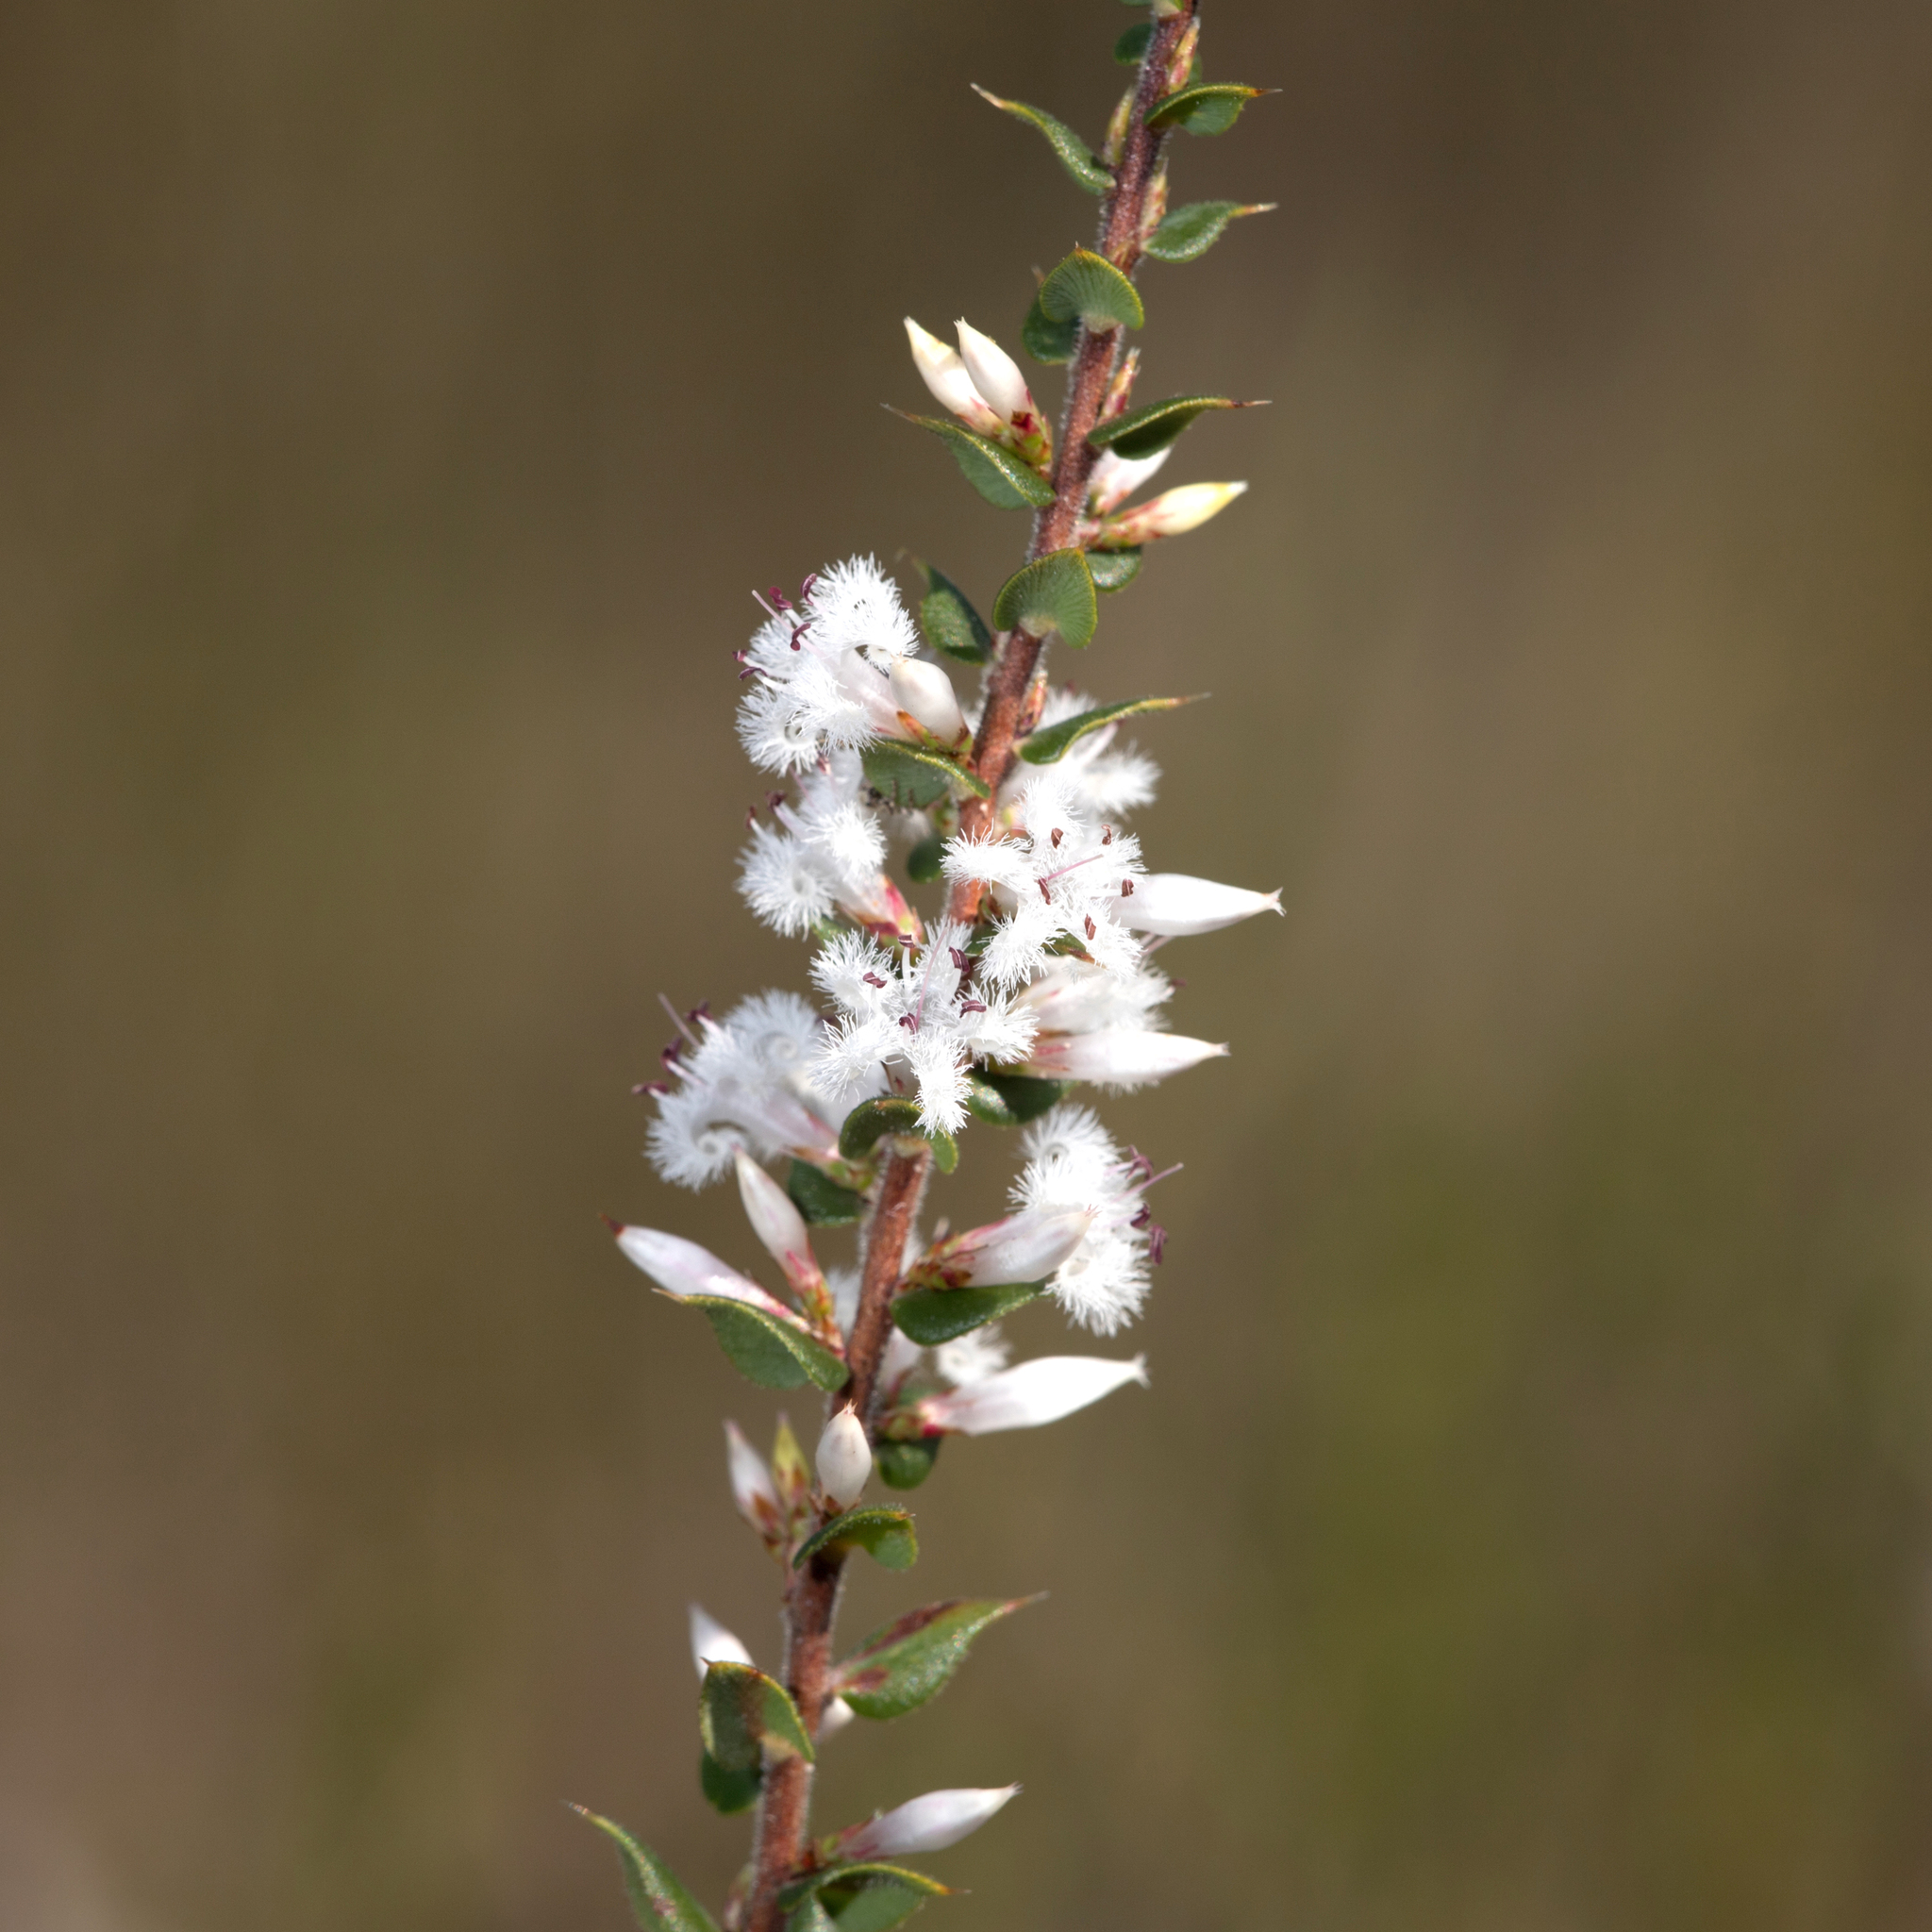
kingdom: Plantae
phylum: Tracheophyta
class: Magnoliopsida
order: Ericales
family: Ericaceae
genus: Styphelia
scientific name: Styphelia exarrhena
